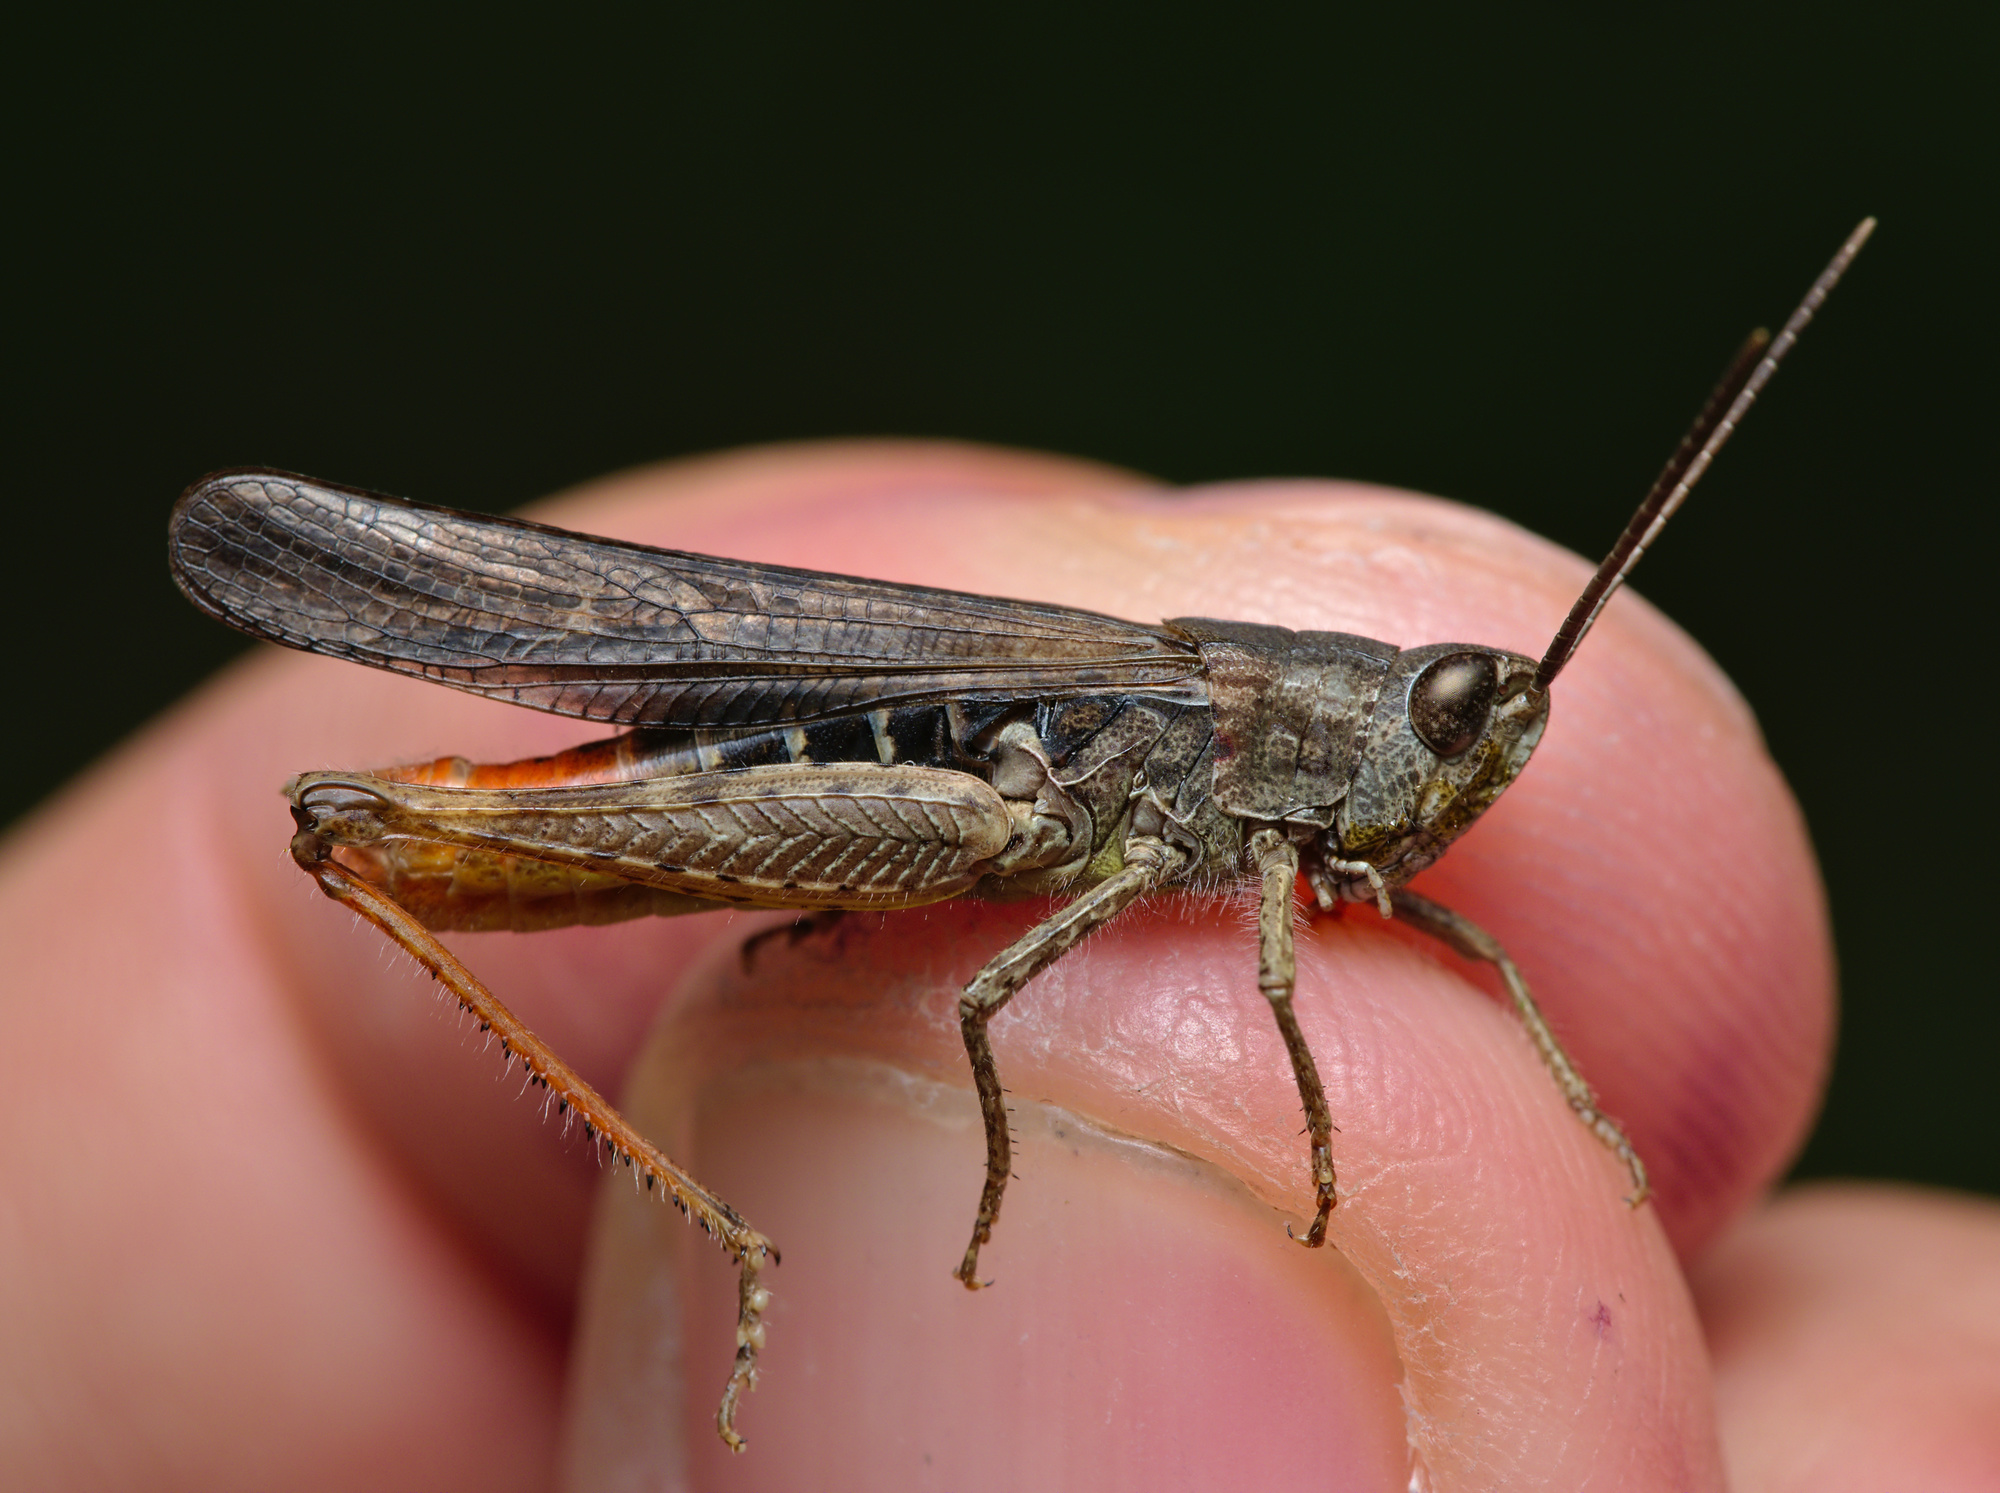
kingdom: Animalia
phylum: Arthropoda
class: Insecta
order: Orthoptera
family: Acrididae
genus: Chorthippus
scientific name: Chorthippus brunneus
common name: Field grasshopper
